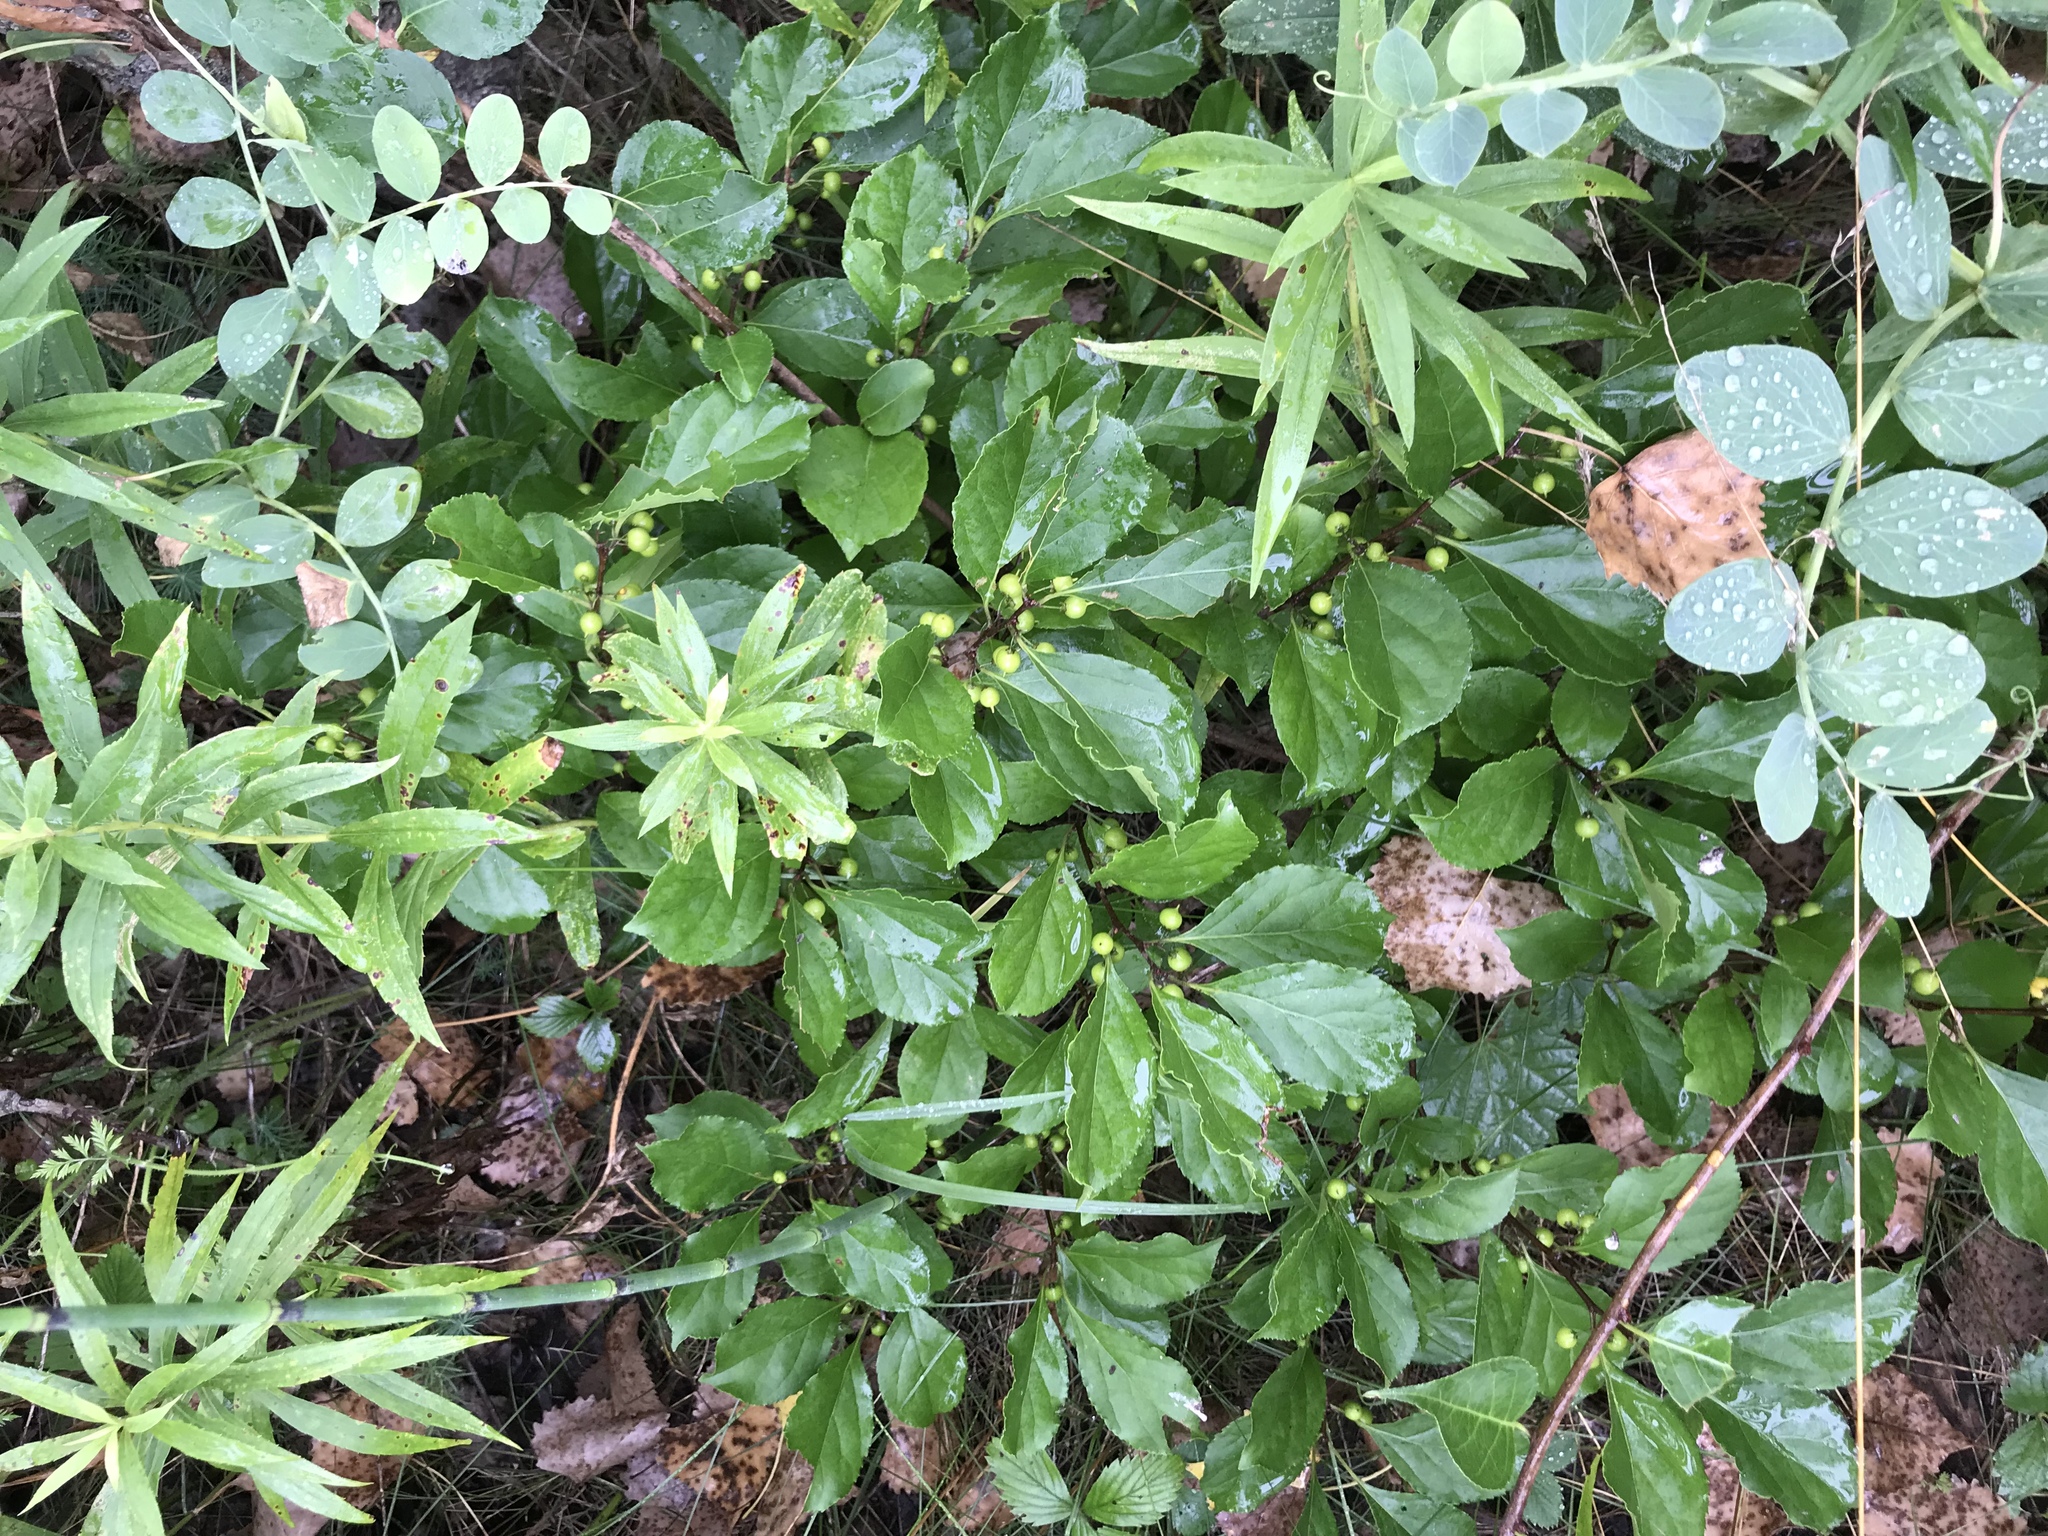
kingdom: Plantae
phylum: Tracheophyta
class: Magnoliopsida
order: Celastrales
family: Celastraceae
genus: Celastrus
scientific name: Celastrus orbiculatus
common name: Oriental bittersweet
